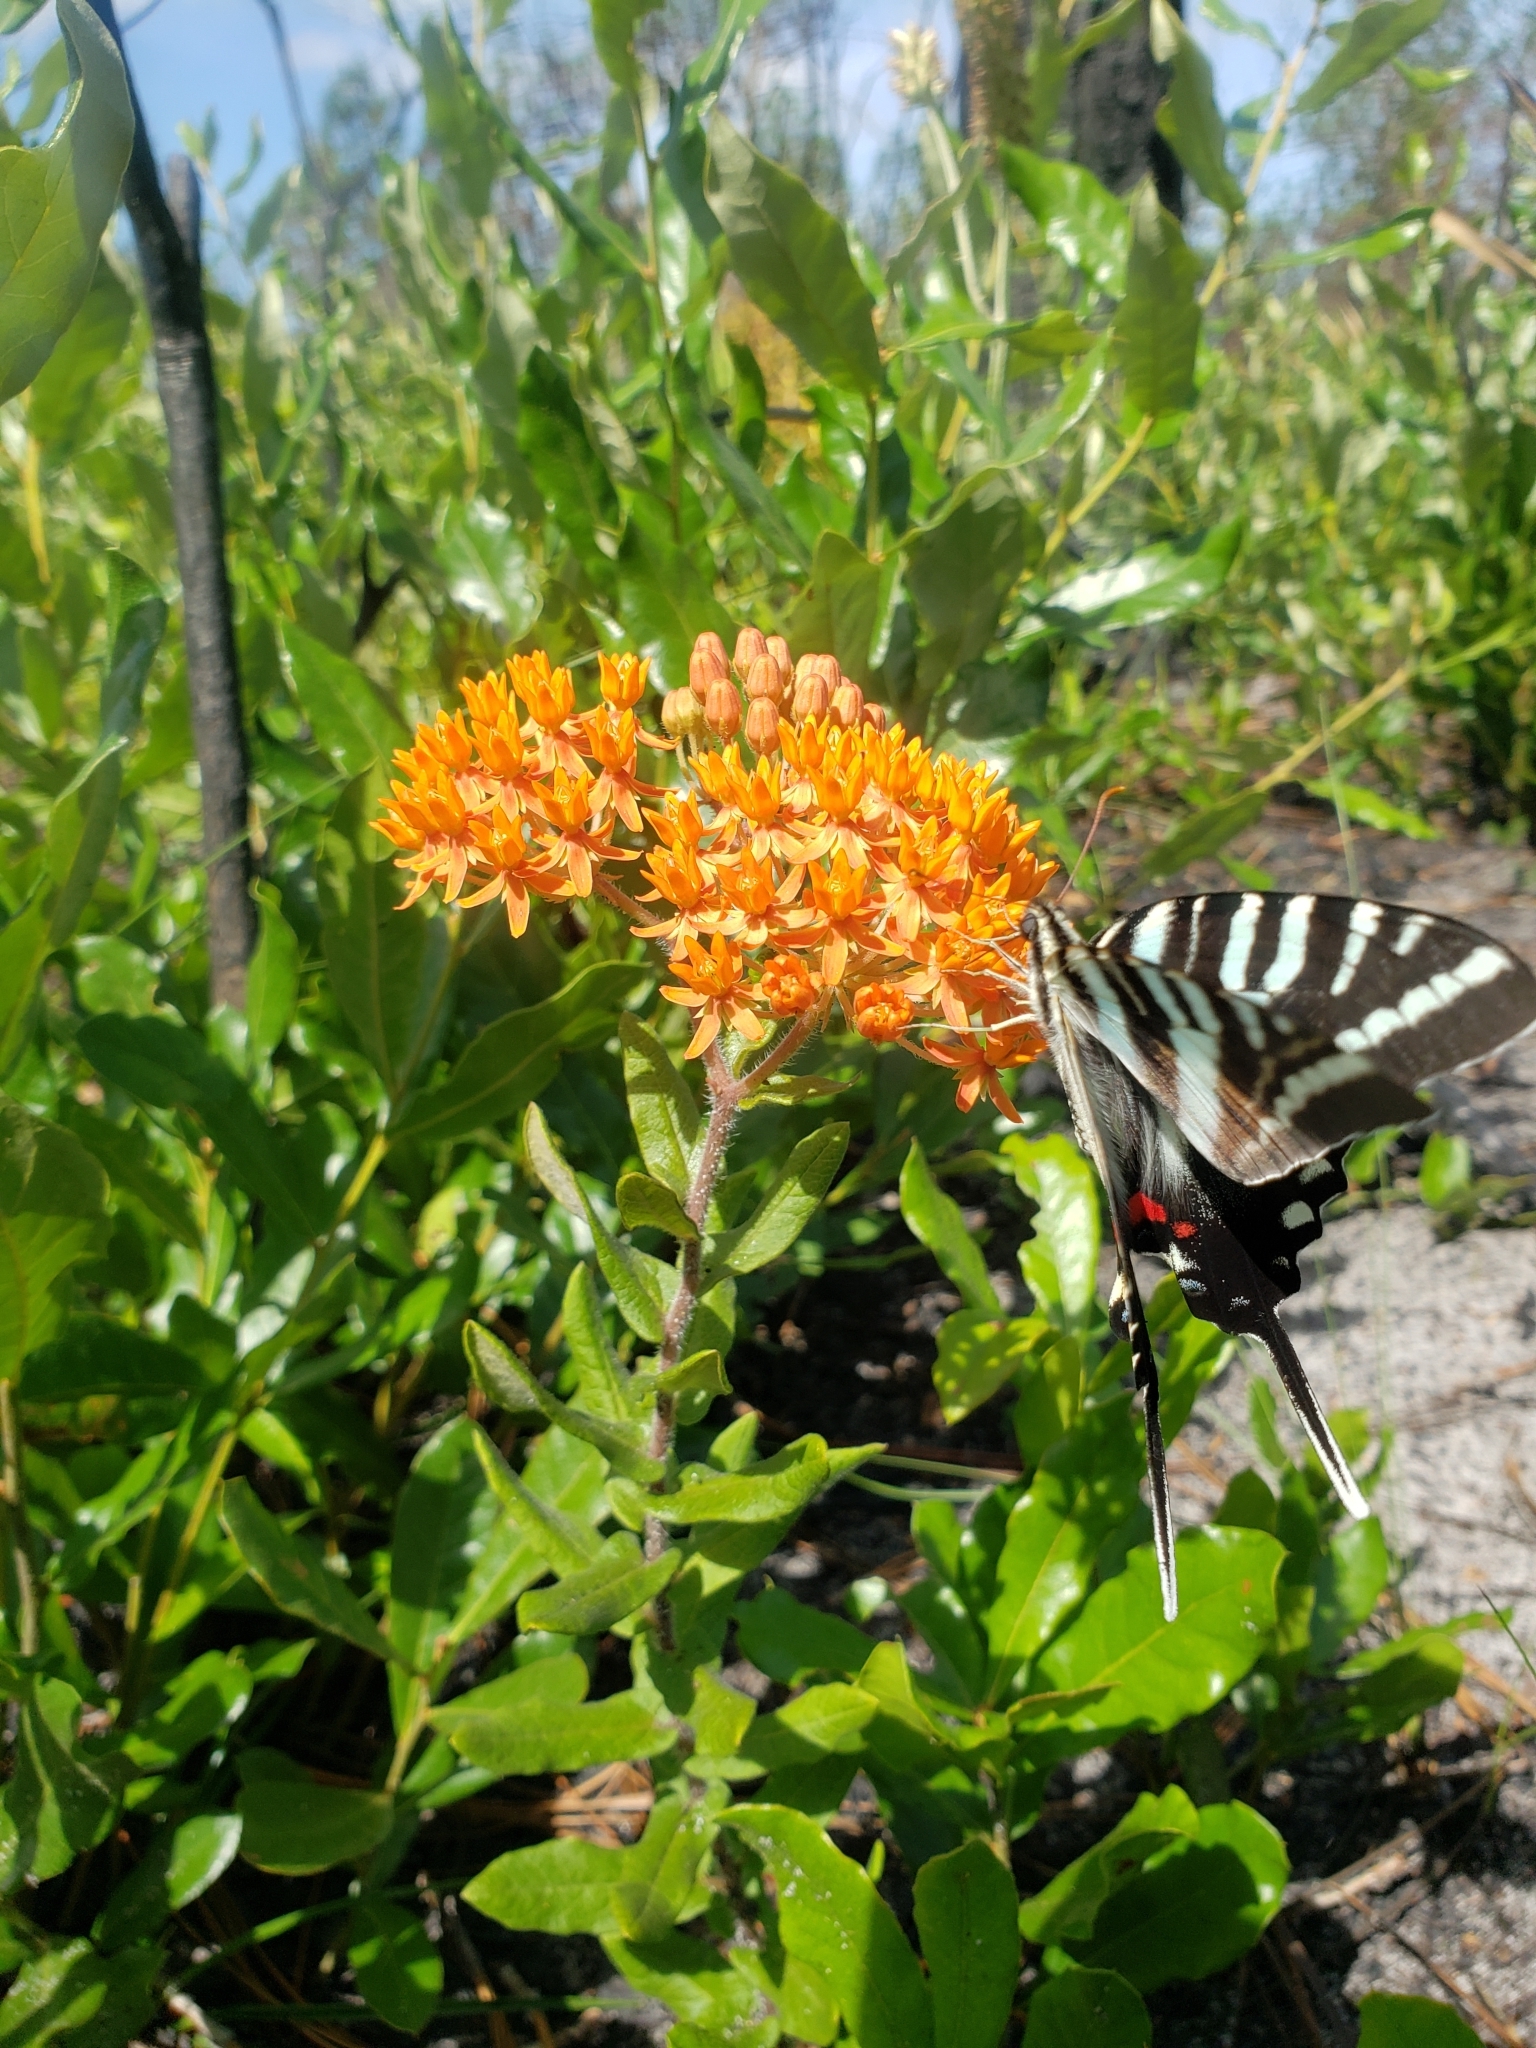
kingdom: Animalia
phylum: Arthropoda
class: Insecta
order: Lepidoptera
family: Papilionidae
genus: Protographium
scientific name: Protographium marcellus
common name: Zebra swallowtail
